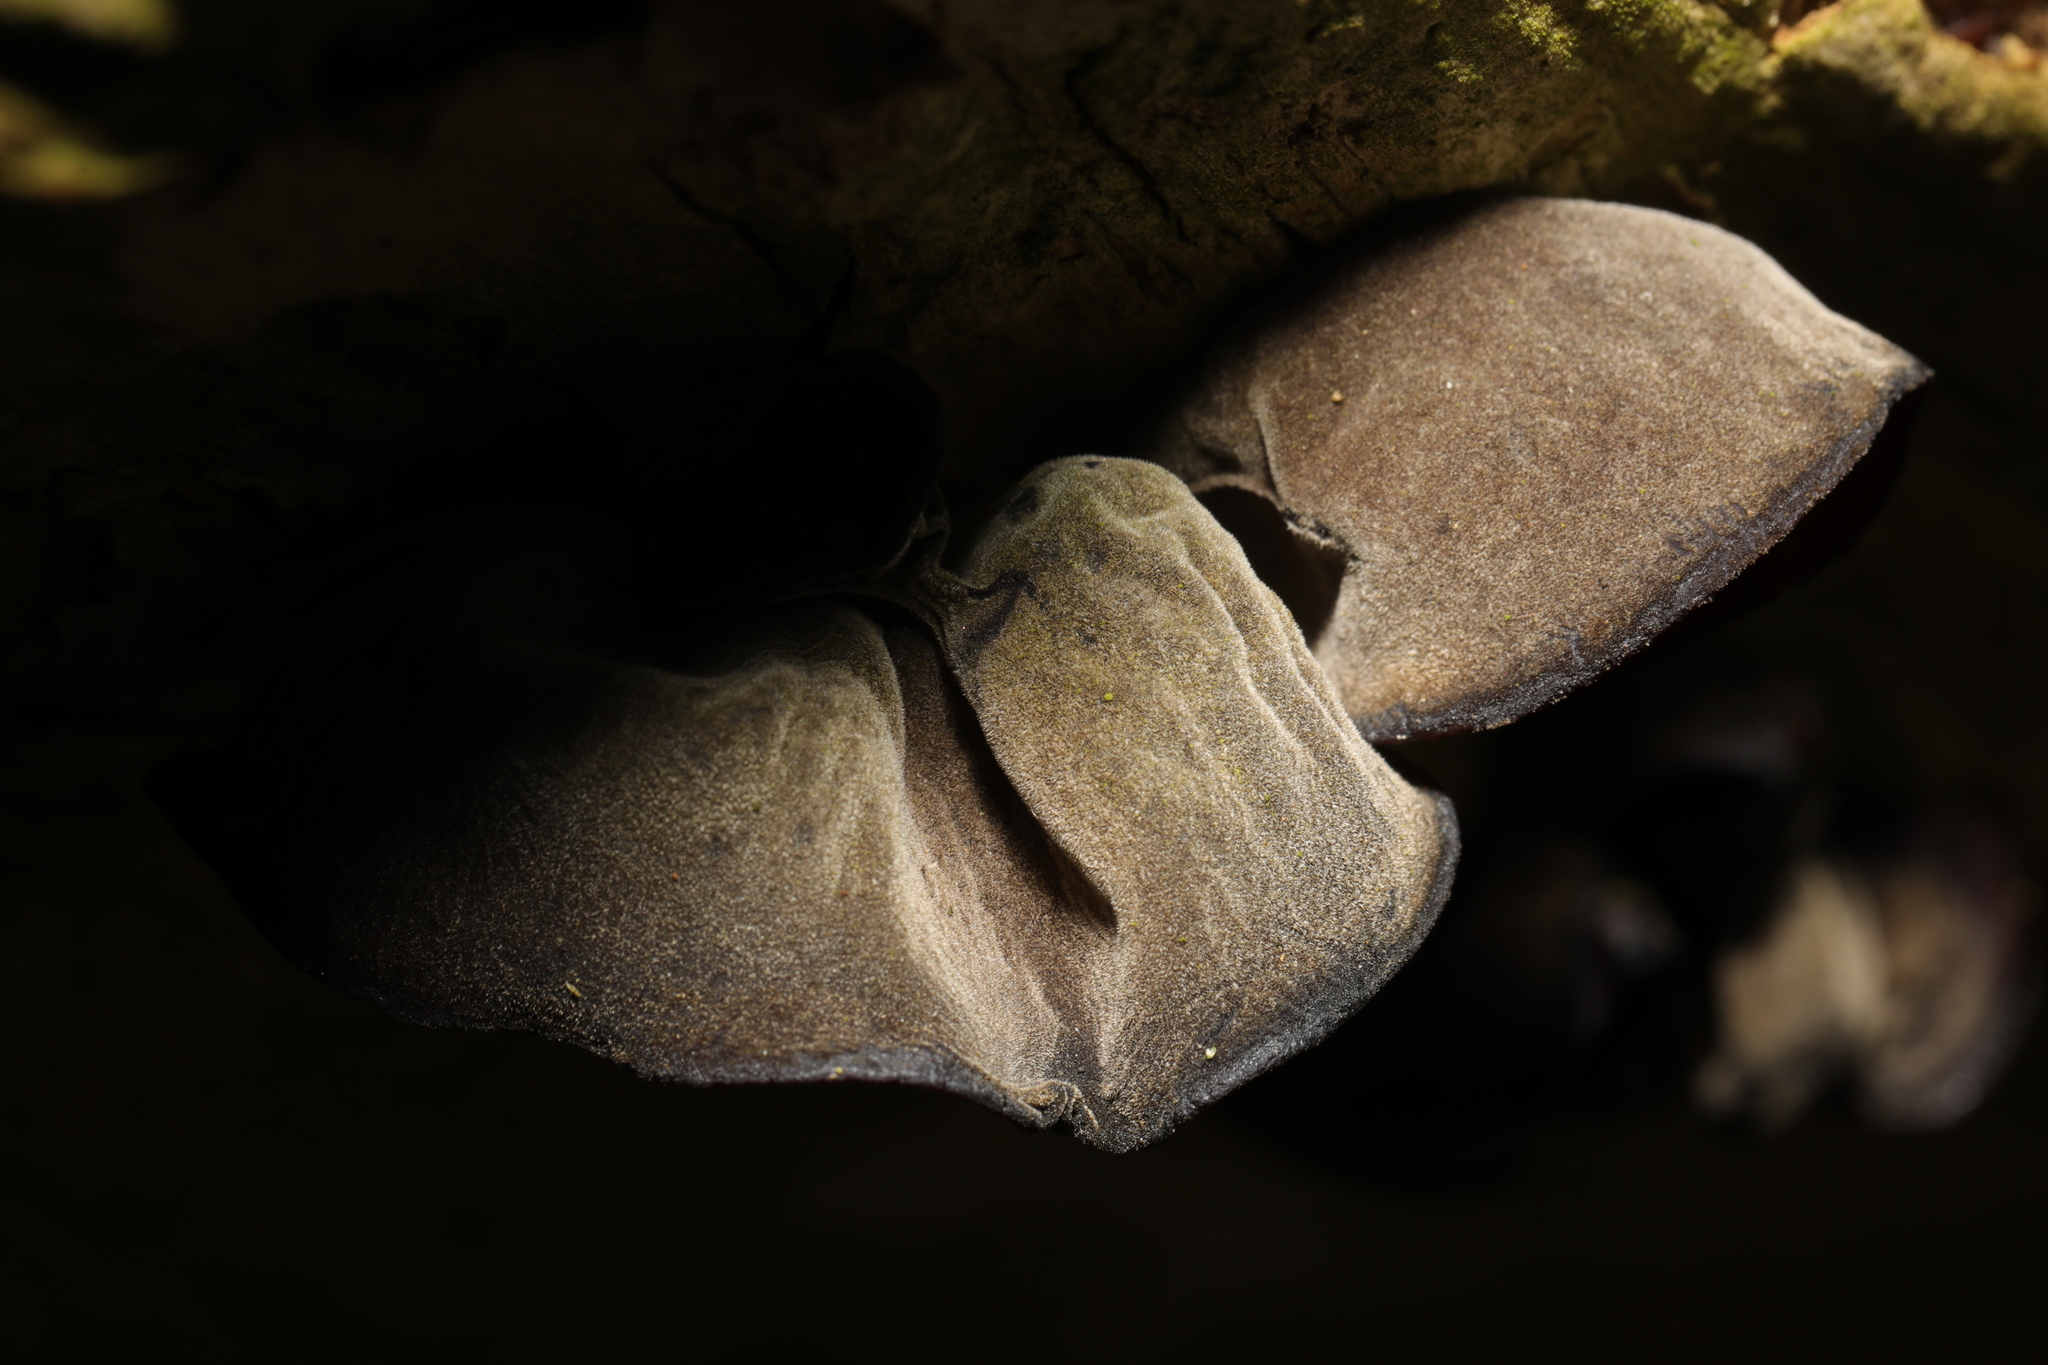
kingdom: Fungi
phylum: Basidiomycota
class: Agaricomycetes
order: Auriculariales
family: Auriculariaceae
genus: Auricularia
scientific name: Auricularia auricula-judae
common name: Jelly ear
